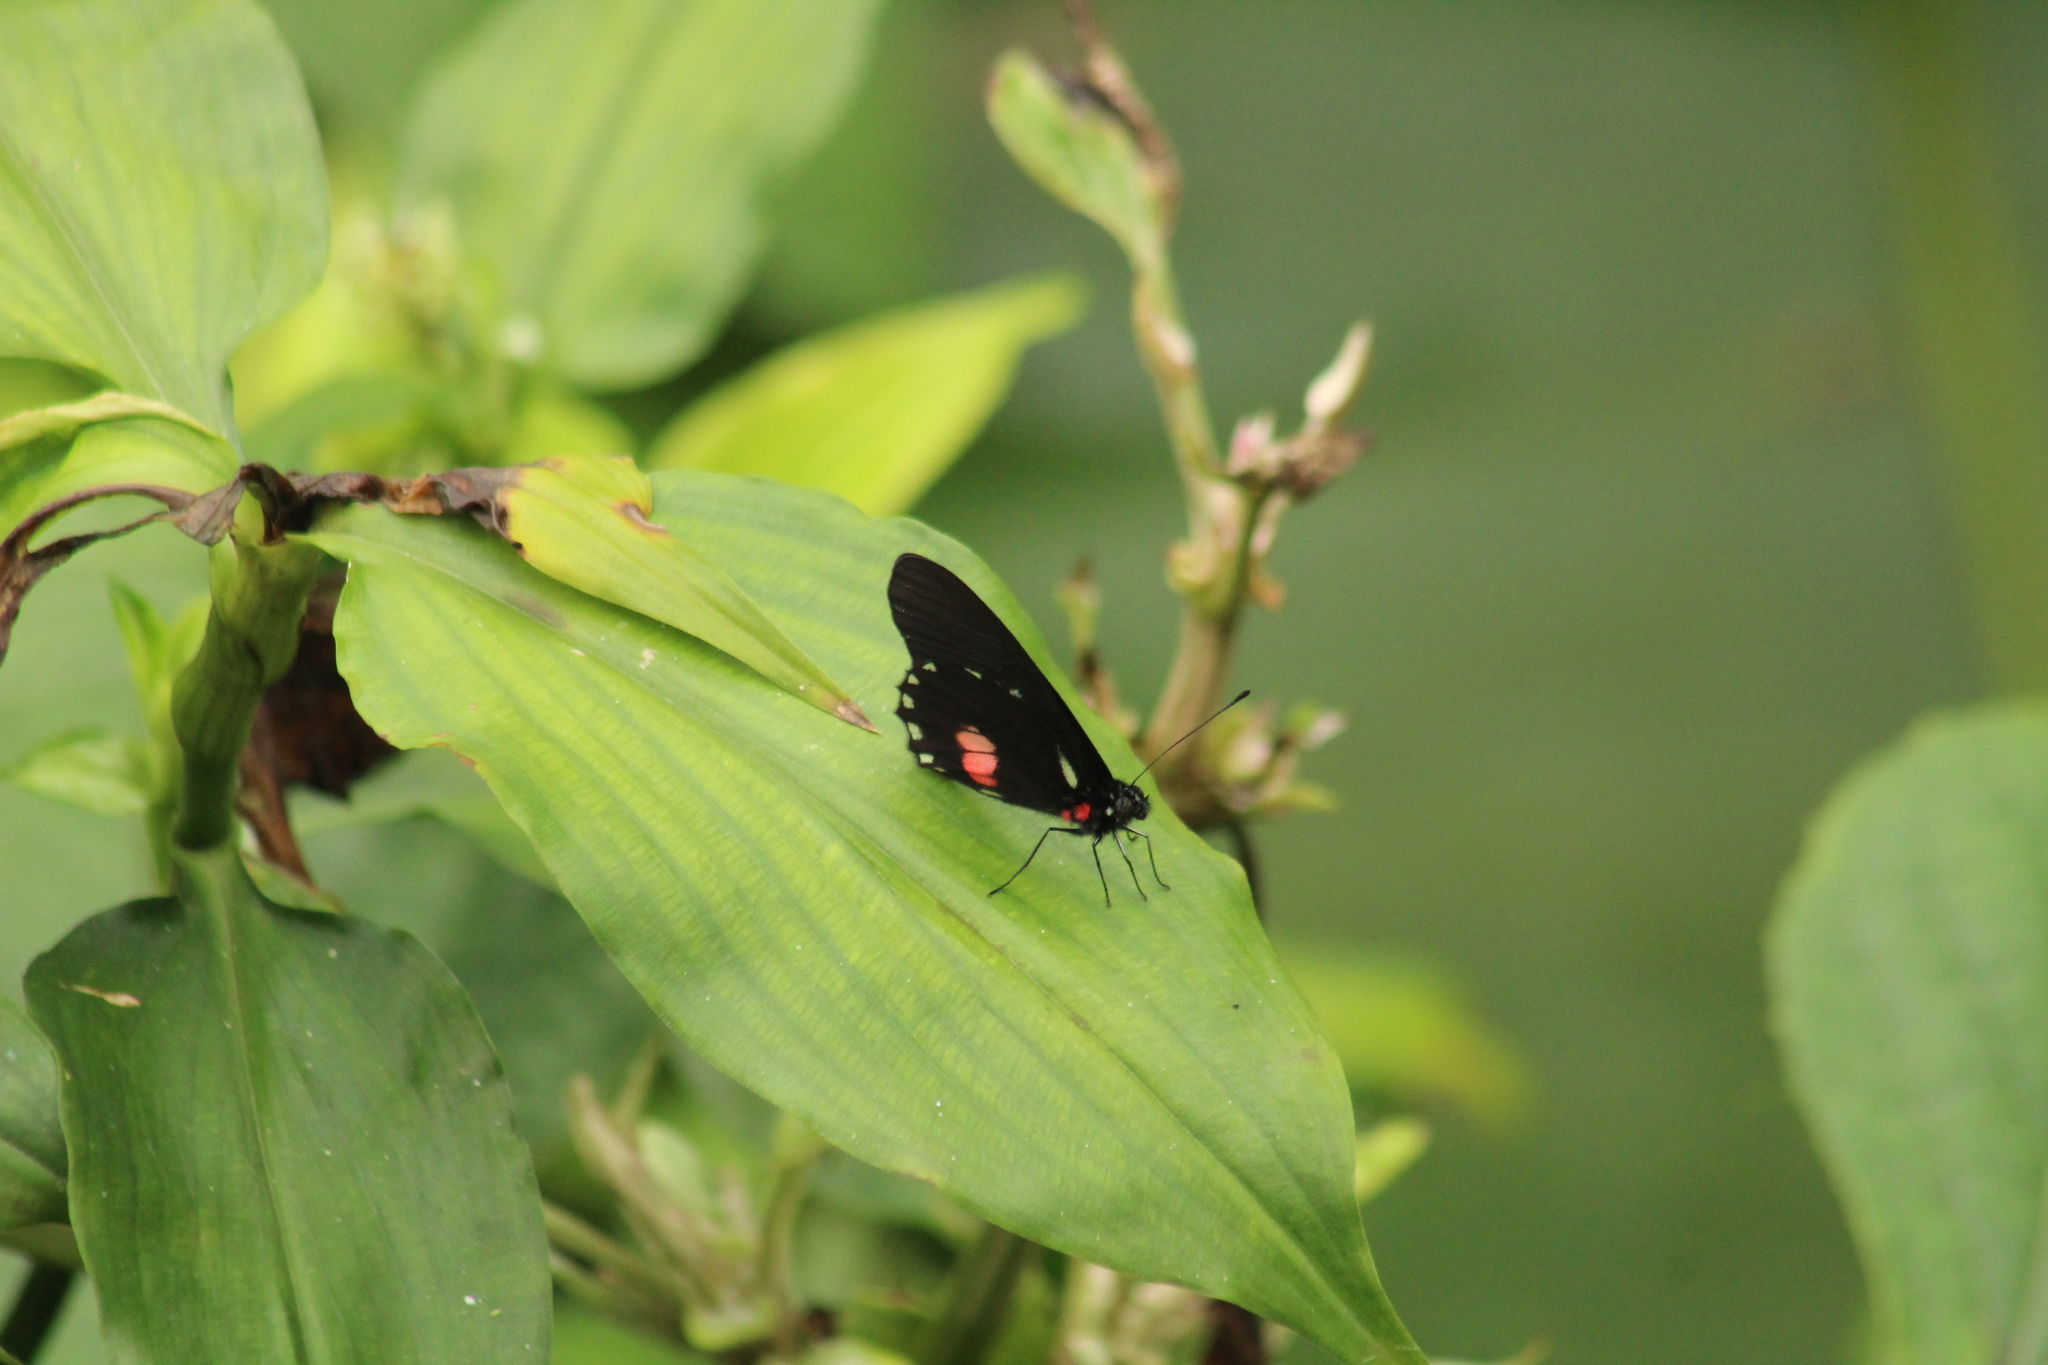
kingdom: Animalia
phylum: Arthropoda
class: Insecta
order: Lepidoptera
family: Pieridae
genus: Archonias
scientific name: Archonias brassolis
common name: Cattleheart white
